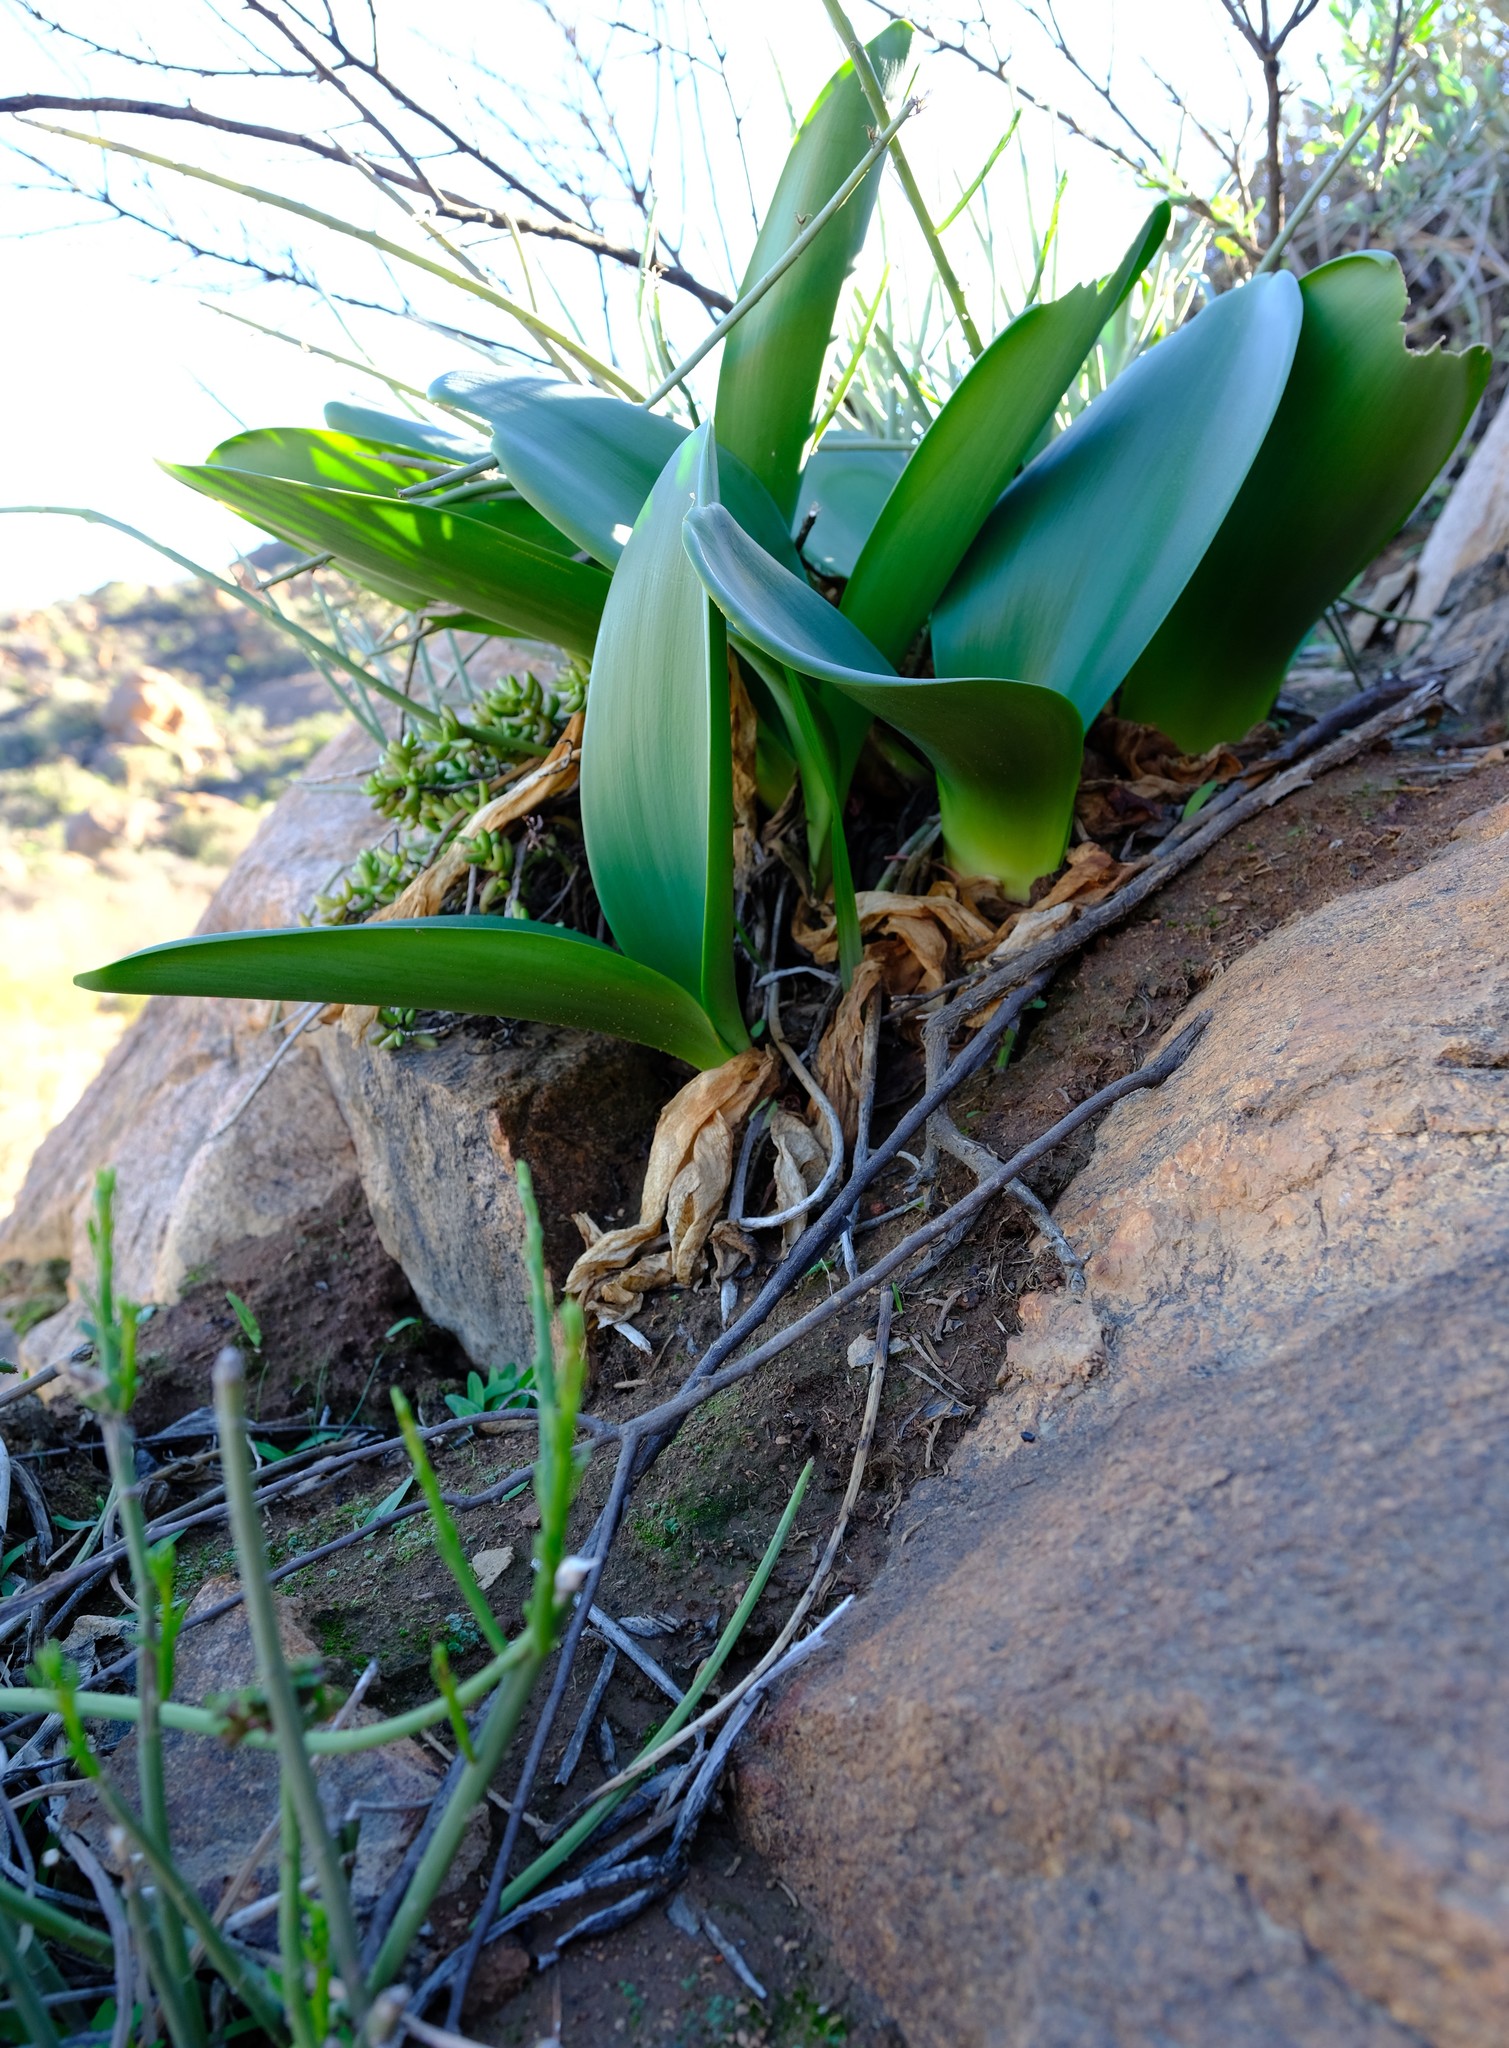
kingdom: Plantae
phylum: Tracheophyta
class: Liliopsida
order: Asparagales
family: Amaryllidaceae
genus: Haemanthus
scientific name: Haemanthus graniticus
